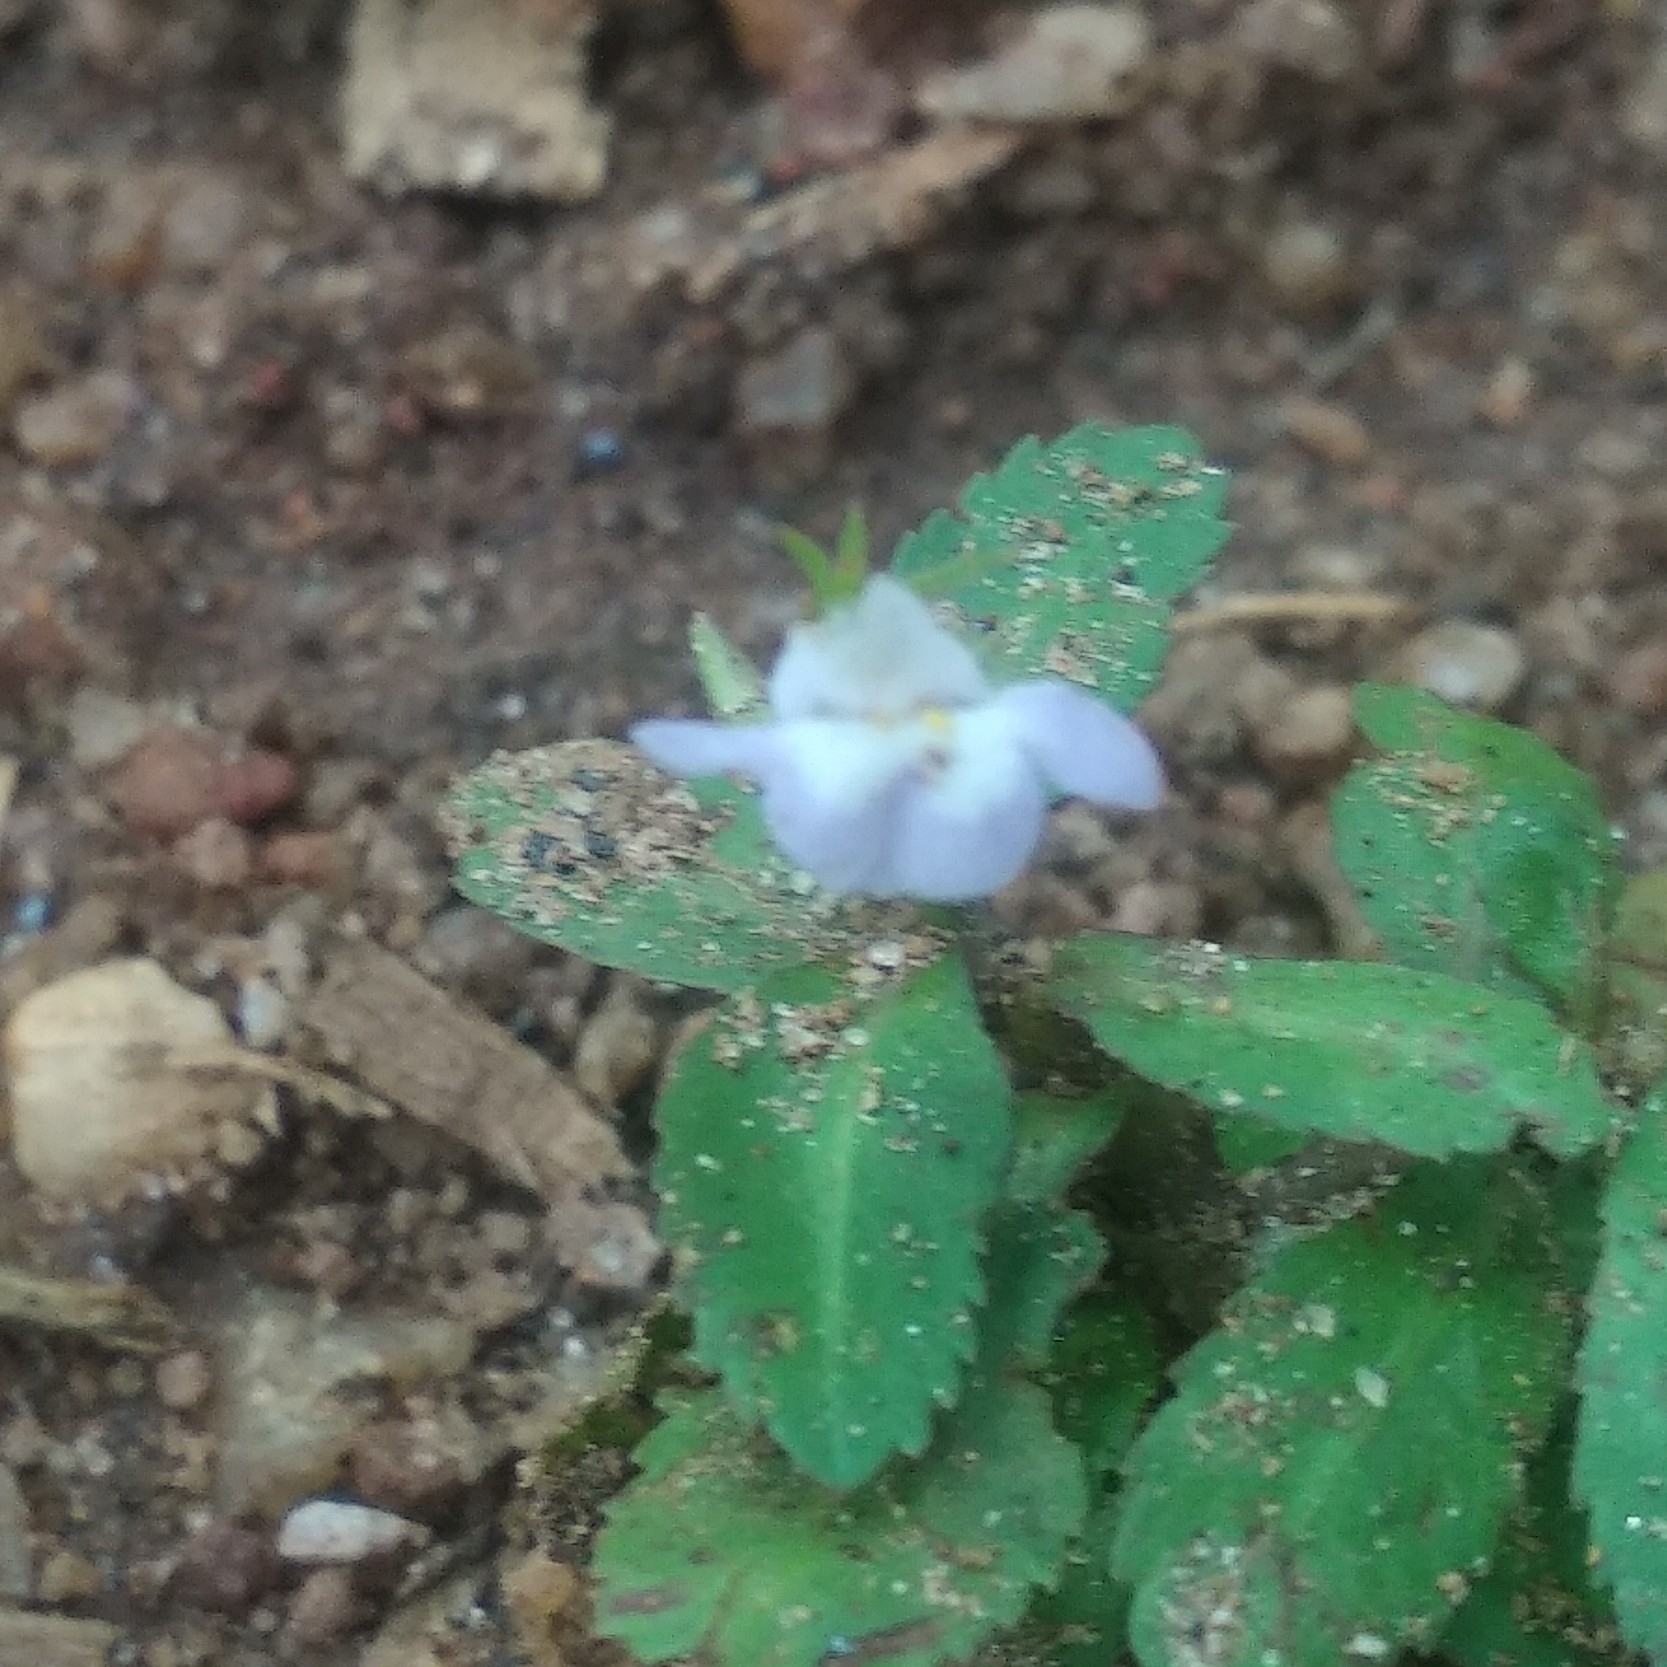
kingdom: Plantae
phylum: Tracheophyta
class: Magnoliopsida
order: Lamiales
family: Linderniaceae
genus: Bonnaya
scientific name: Bonnaya antipoda
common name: Sparrow false pimpernel
